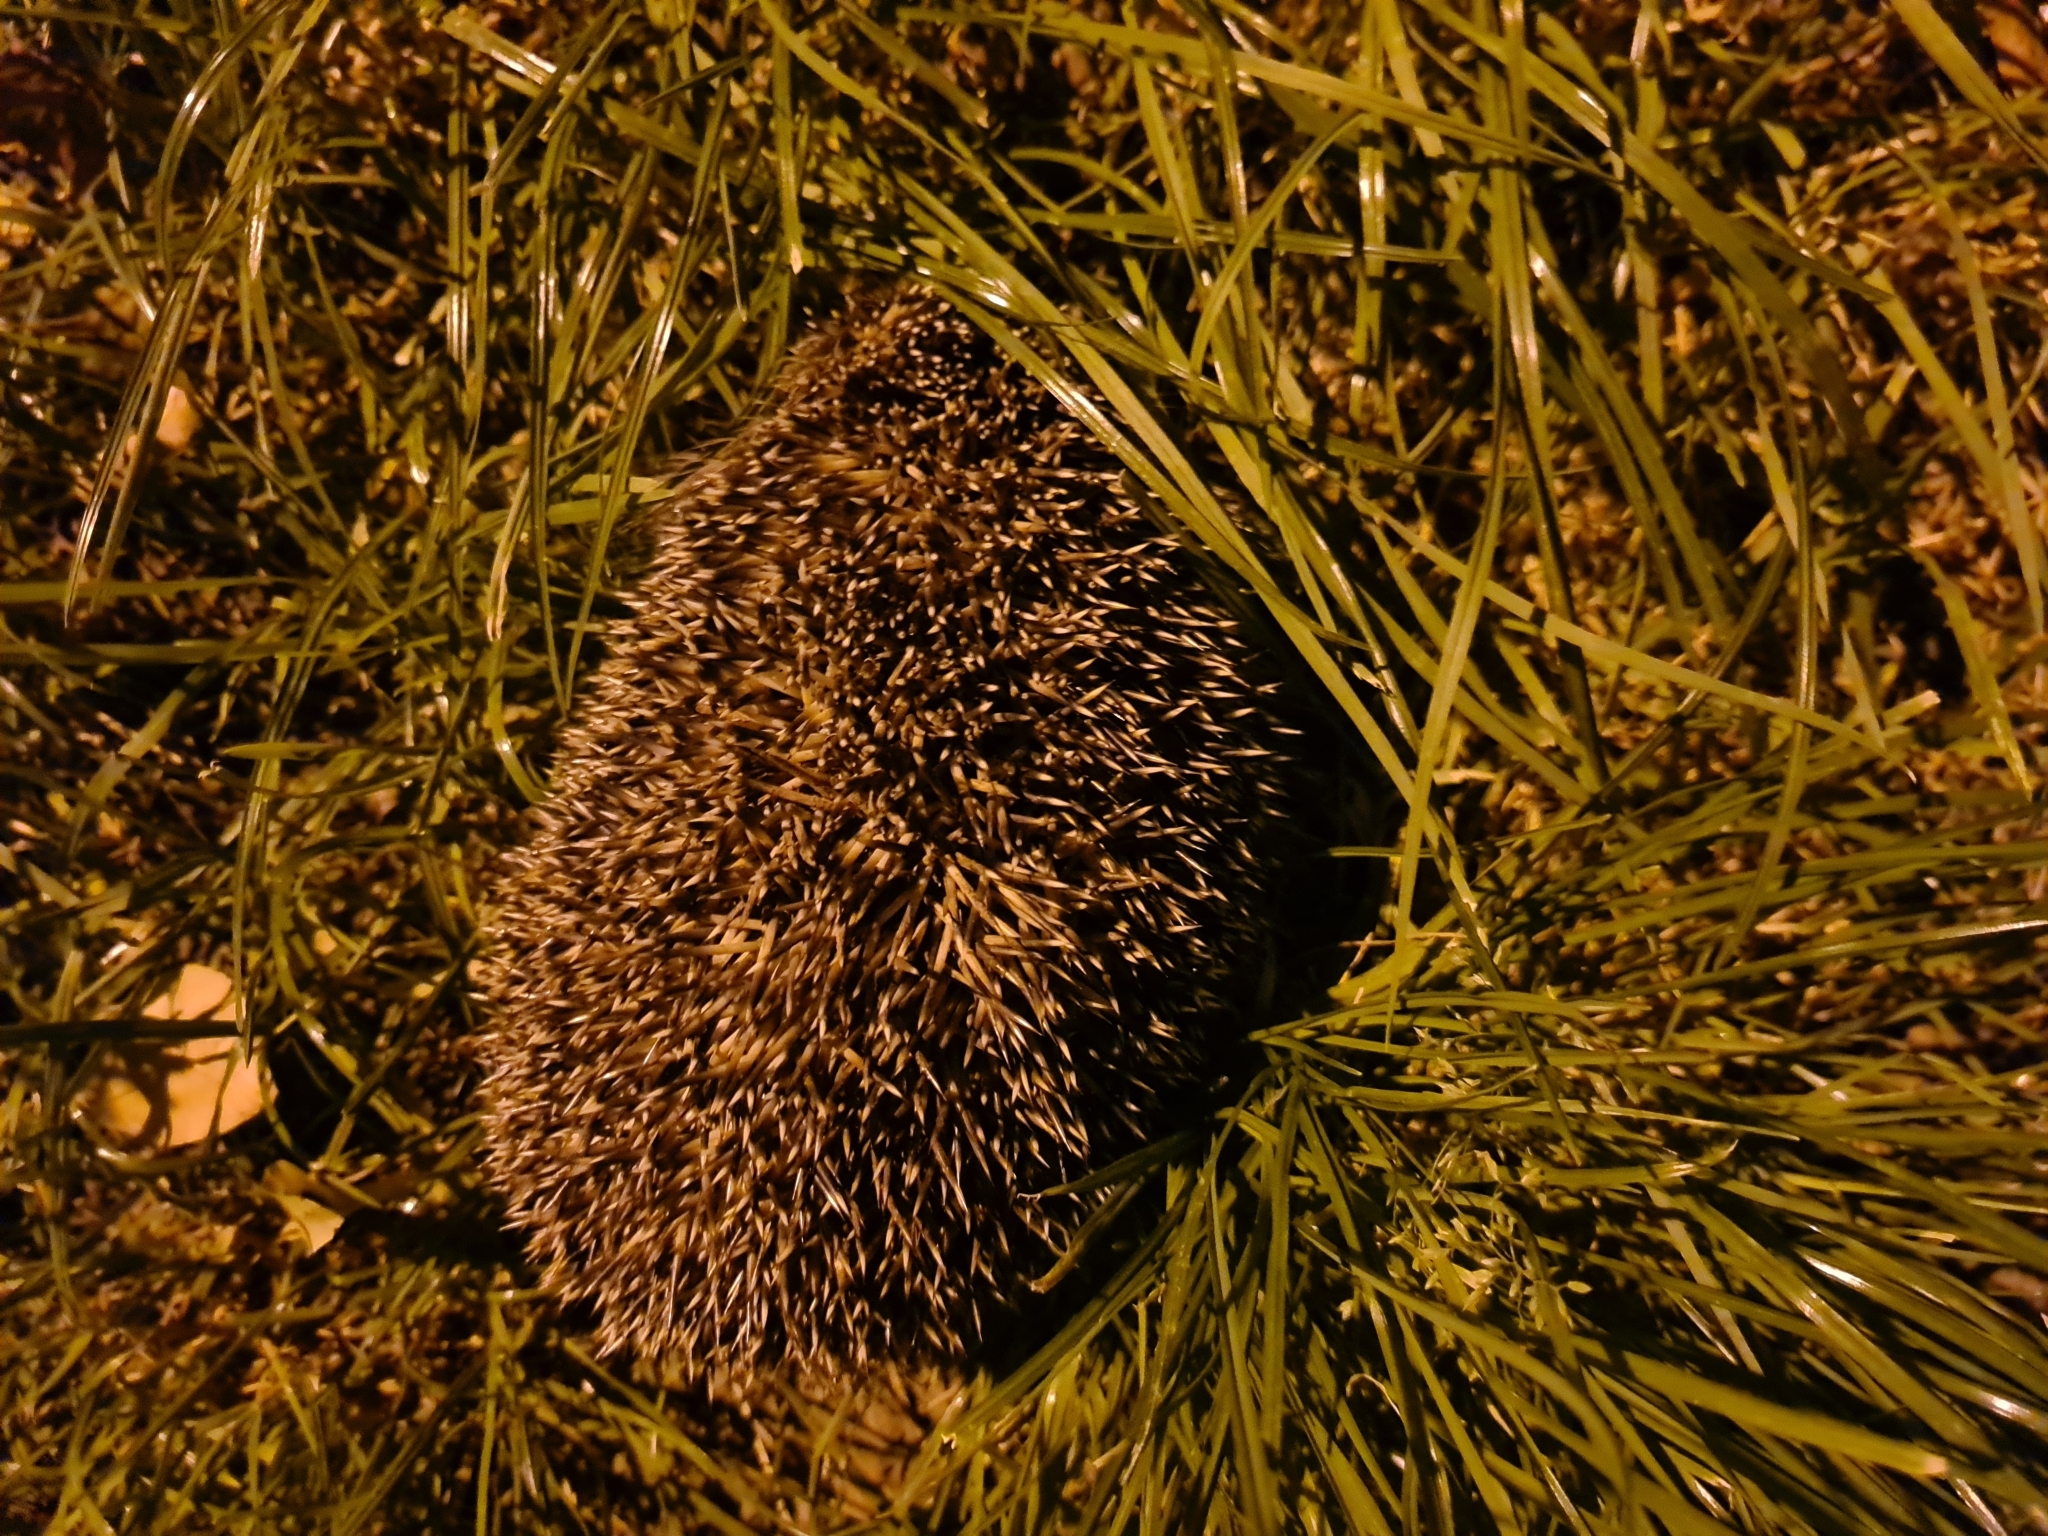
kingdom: Animalia
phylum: Chordata
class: Mammalia
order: Erinaceomorpha
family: Erinaceidae
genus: Erinaceus
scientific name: Erinaceus roumanicus
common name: Northern white-breasted hedgehog
